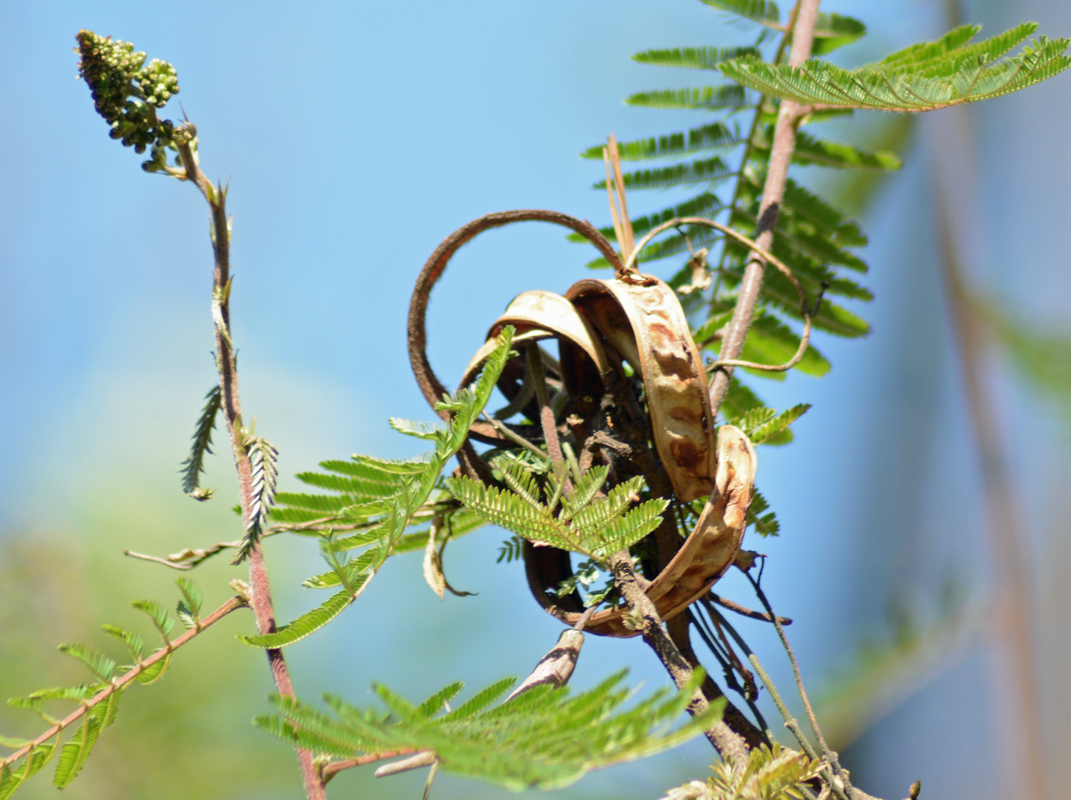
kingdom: Plantae
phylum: Tracheophyta
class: Magnoliopsida
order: Fabales
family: Fabaceae
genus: Calliandra
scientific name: Calliandra houstoniana
